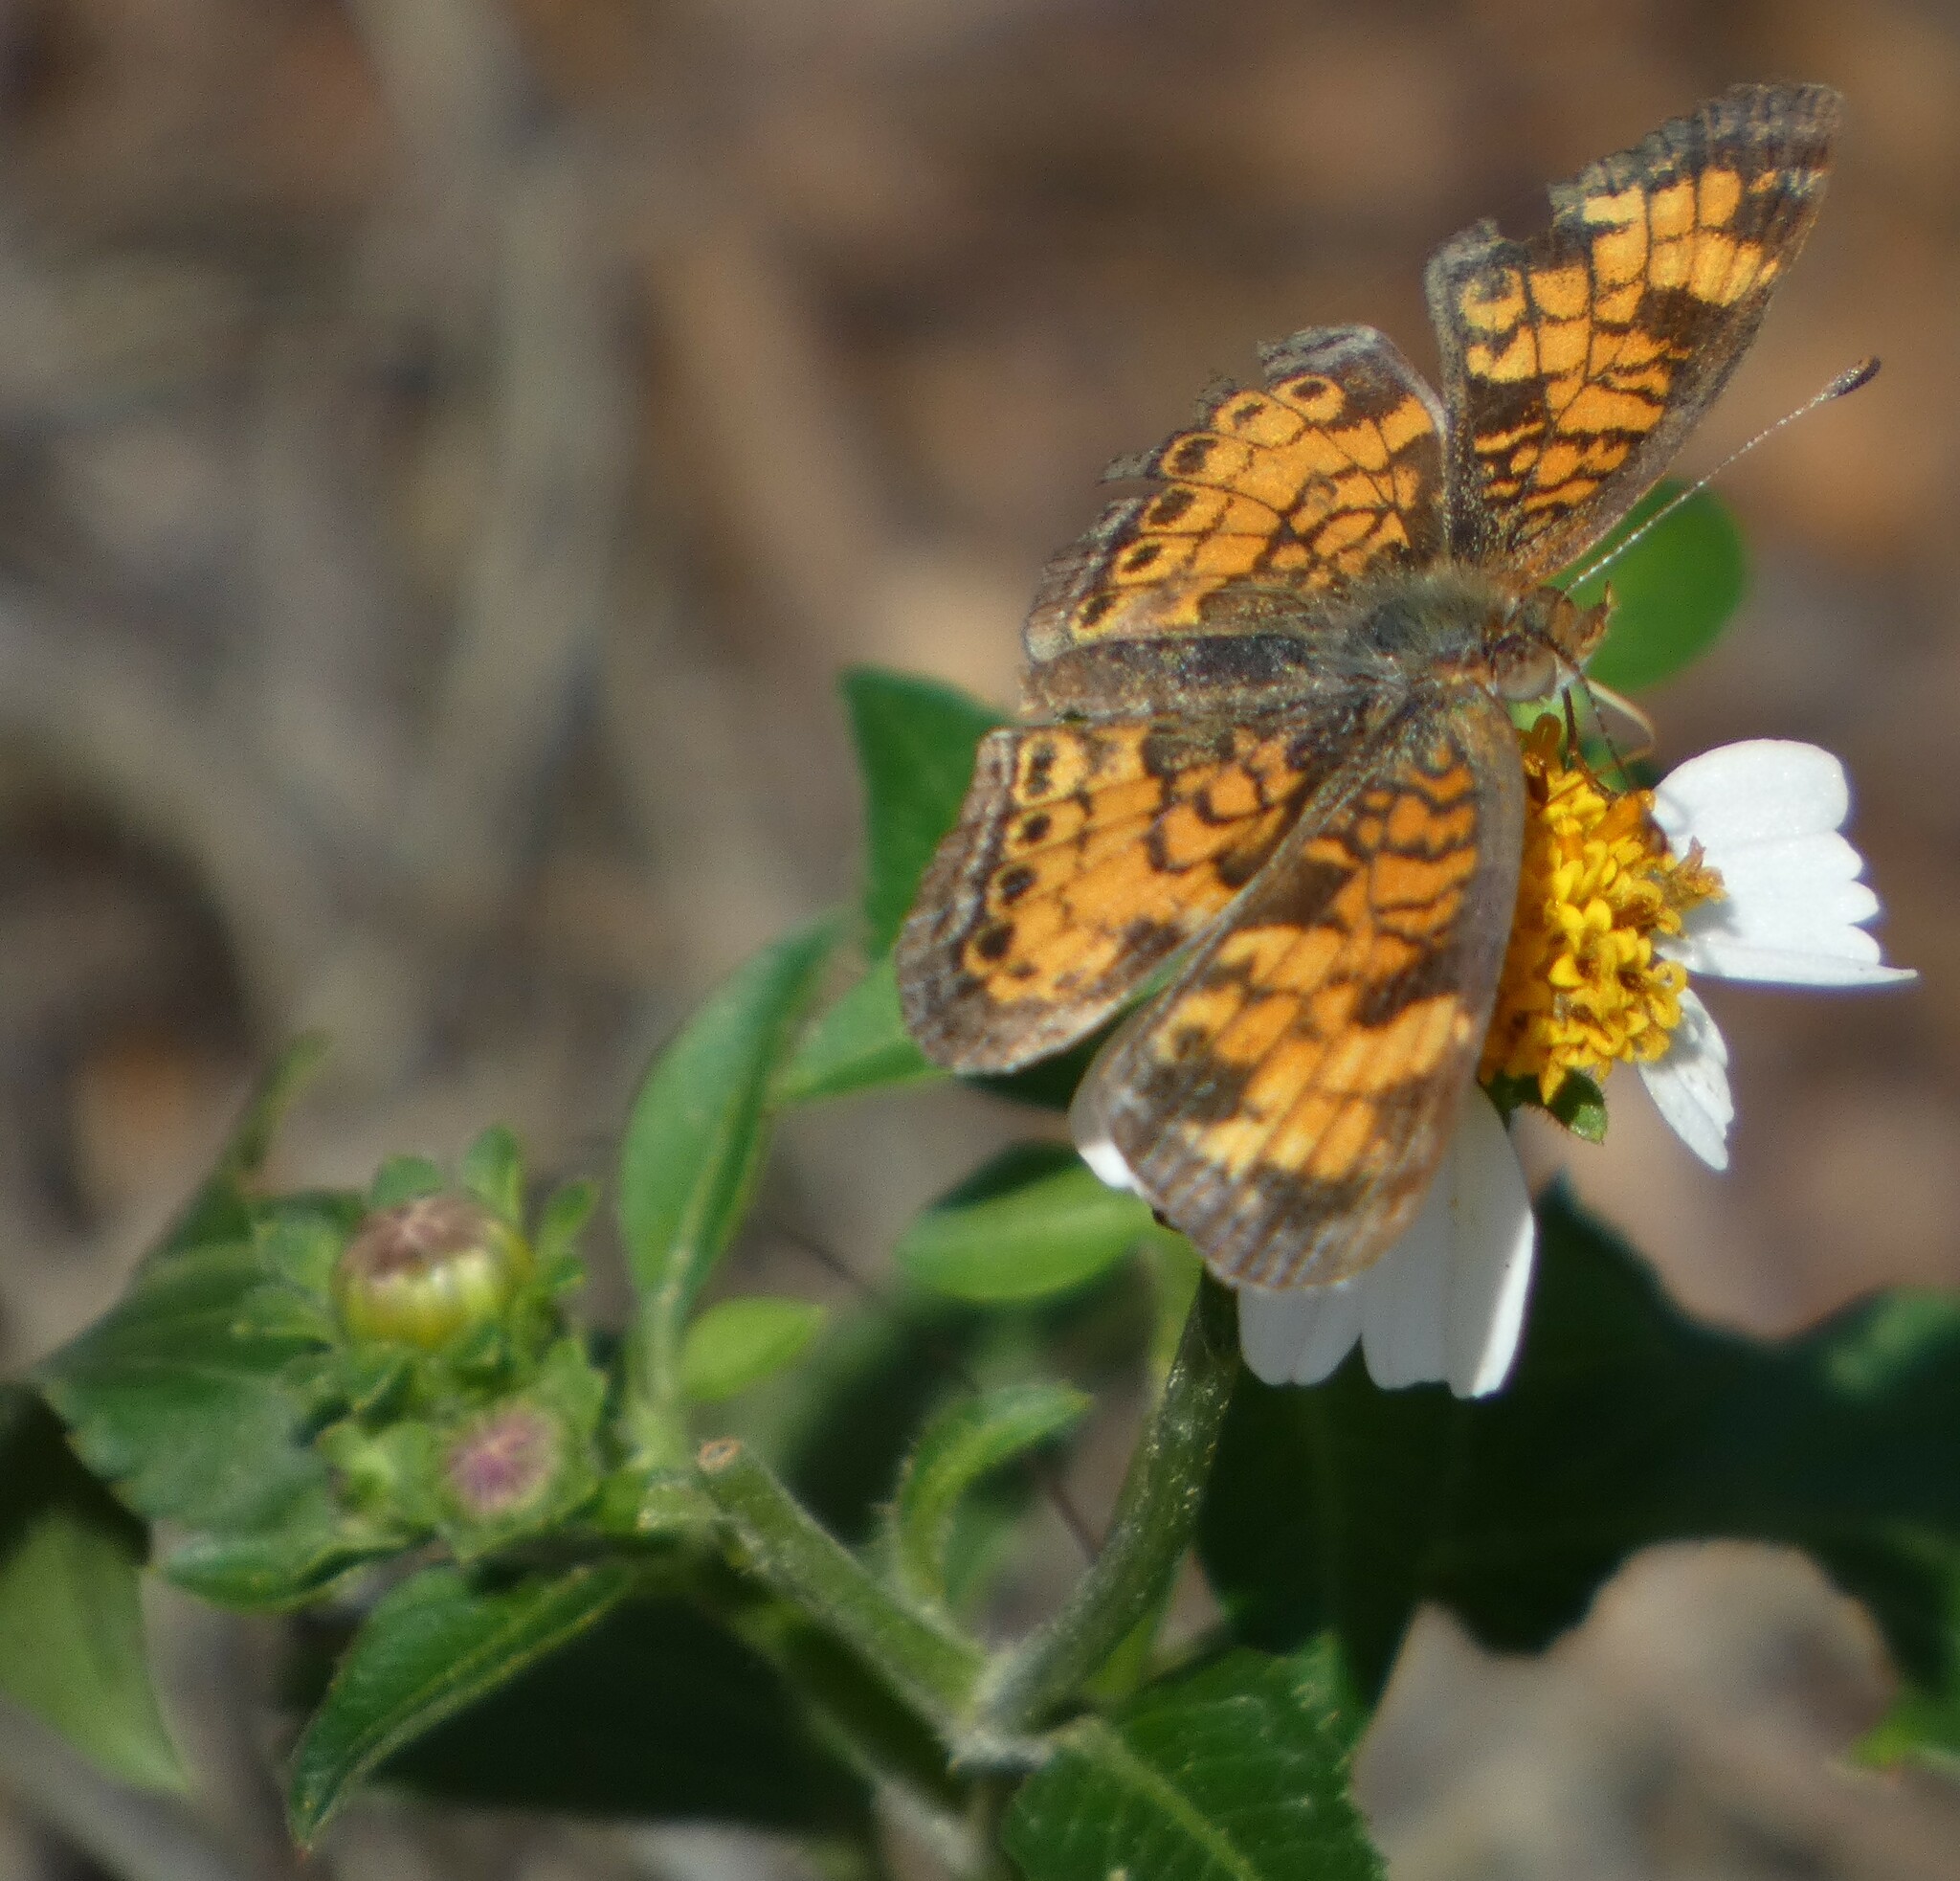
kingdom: Animalia
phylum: Arthropoda
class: Insecta
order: Lepidoptera
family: Nymphalidae
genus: Phyciodes
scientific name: Phyciodes tharos
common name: Pearl crescent
